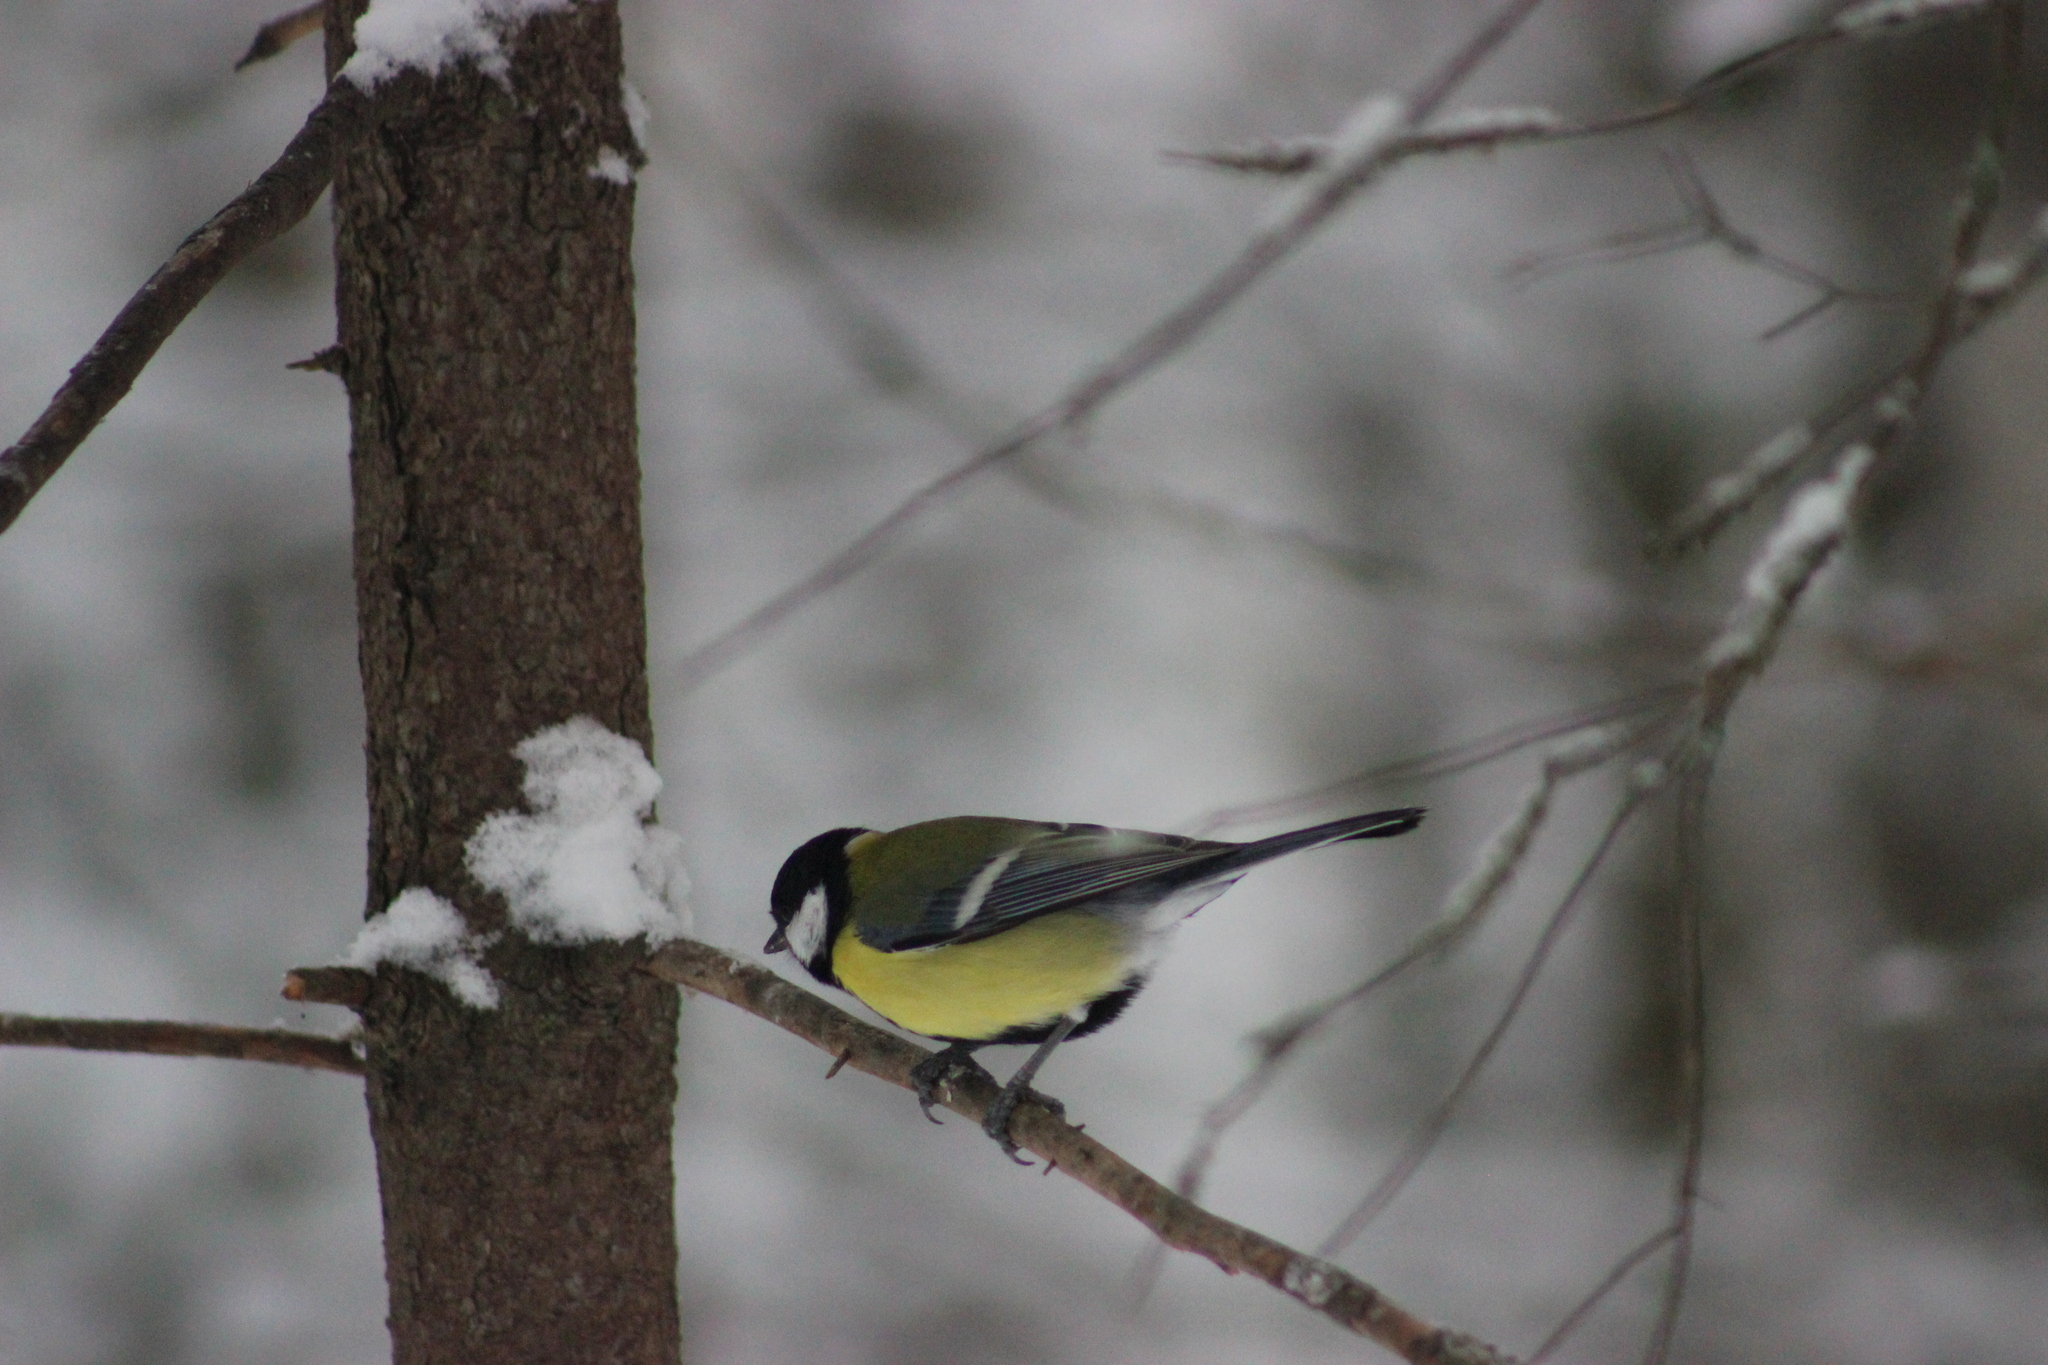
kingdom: Animalia
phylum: Chordata
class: Aves
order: Passeriformes
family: Paridae
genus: Parus
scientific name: Parus major
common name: Great tit
